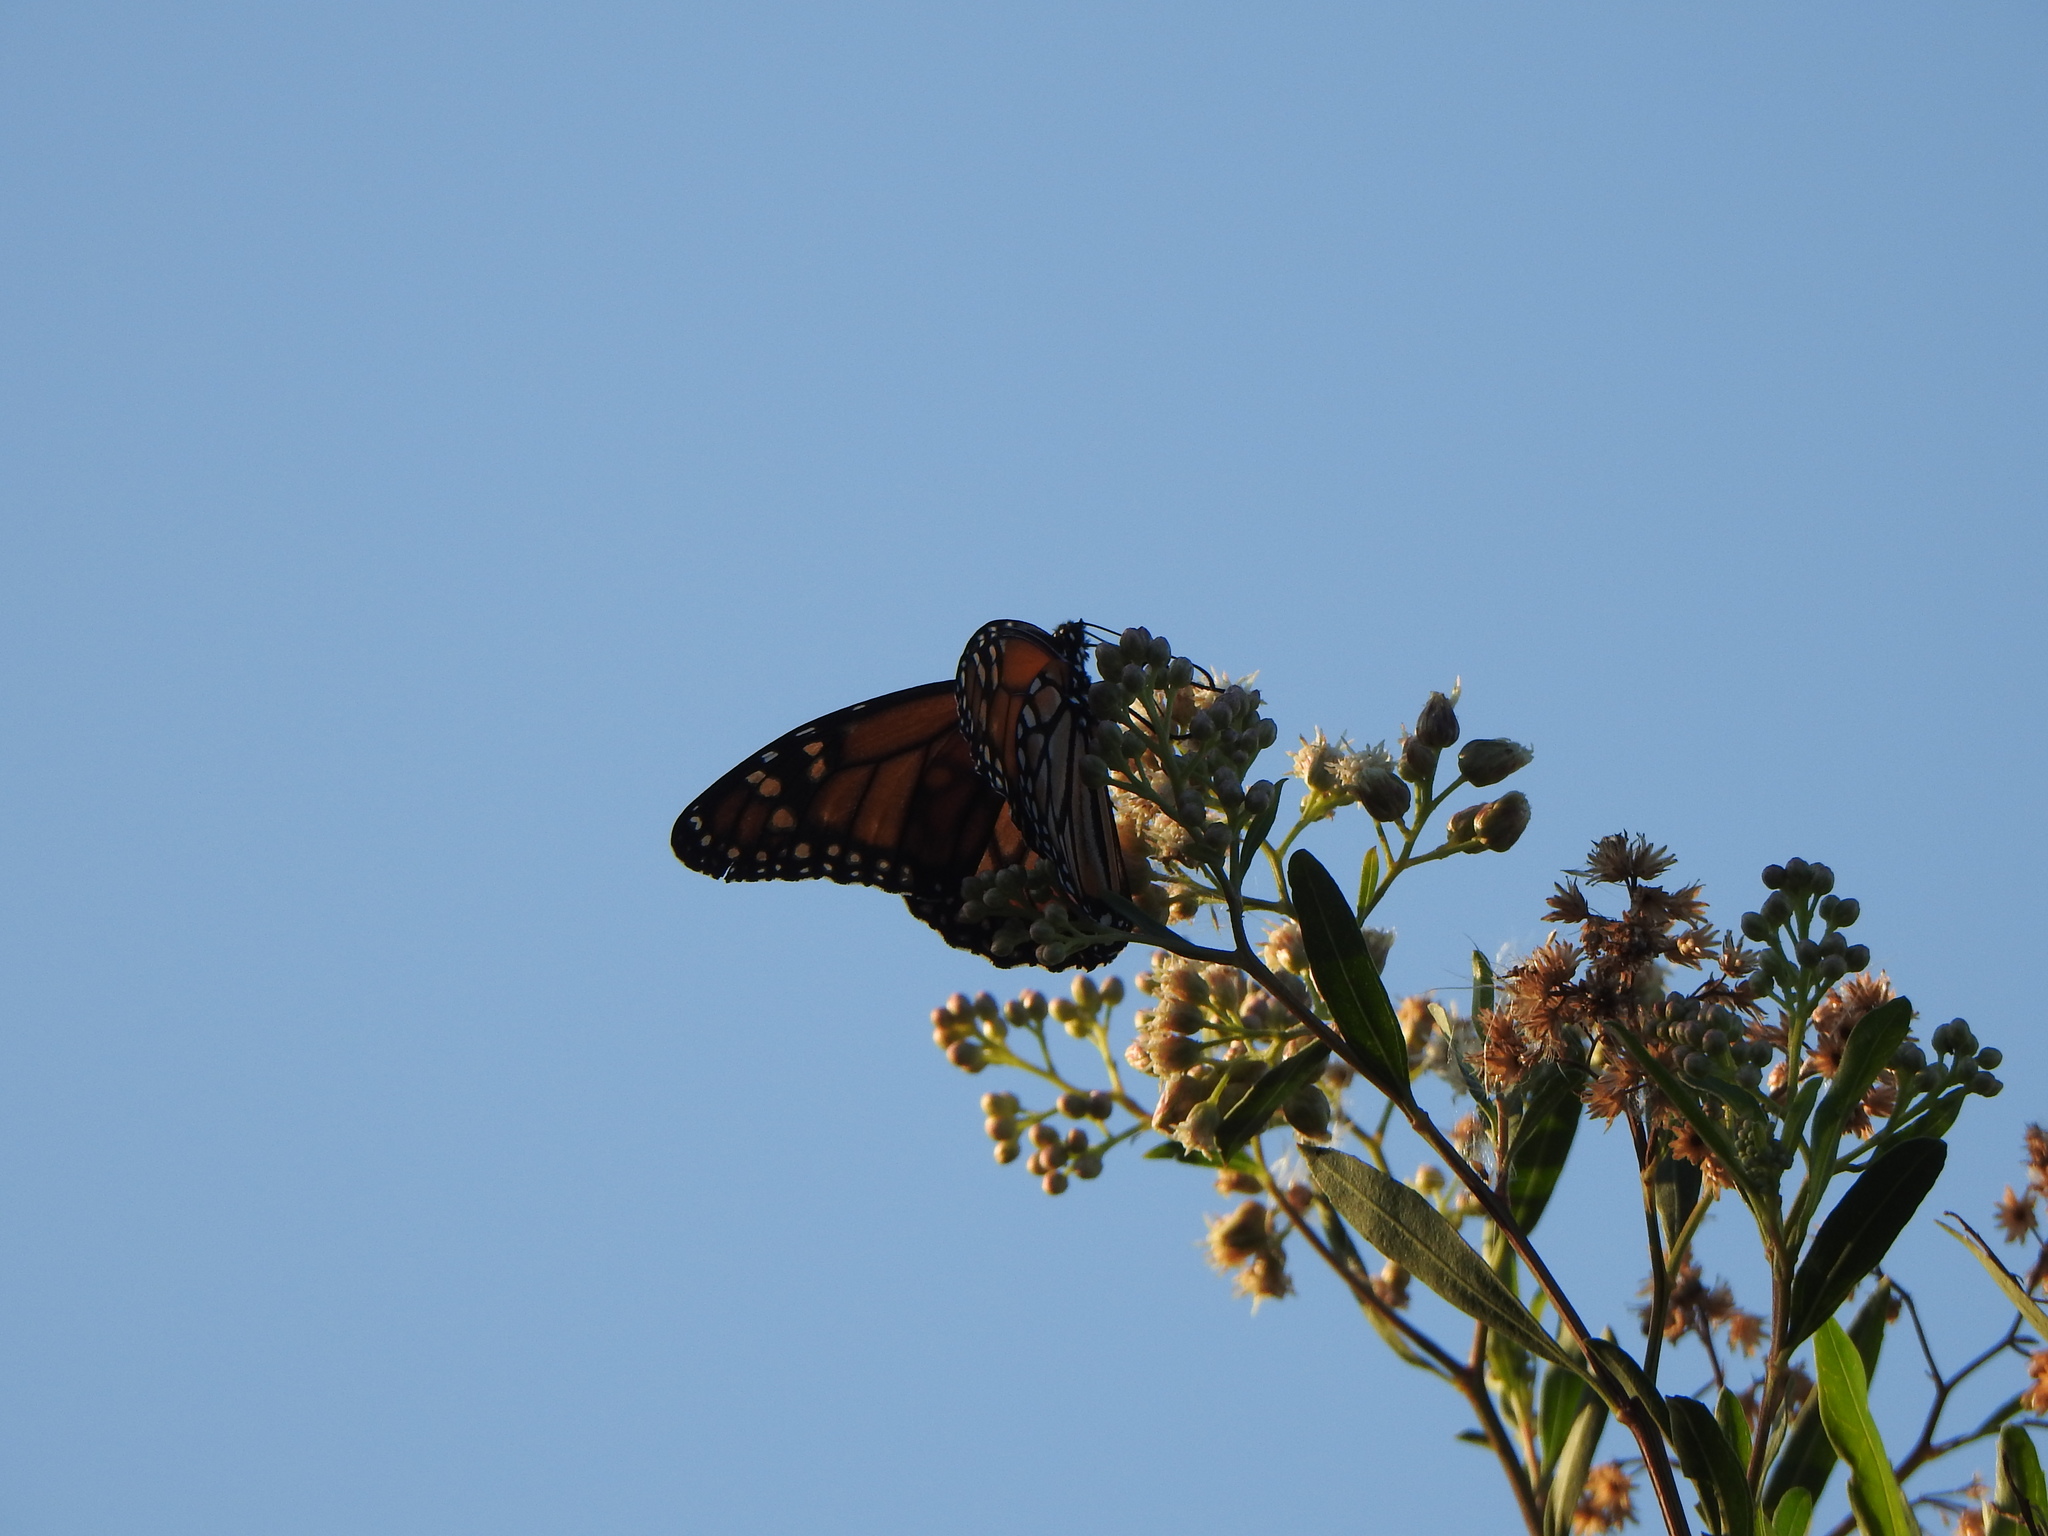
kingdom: Animalia
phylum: Arthropoda
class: Insecta
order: Lepidoptera
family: Nymphalidae
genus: Danaus
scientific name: Danaus erippus
